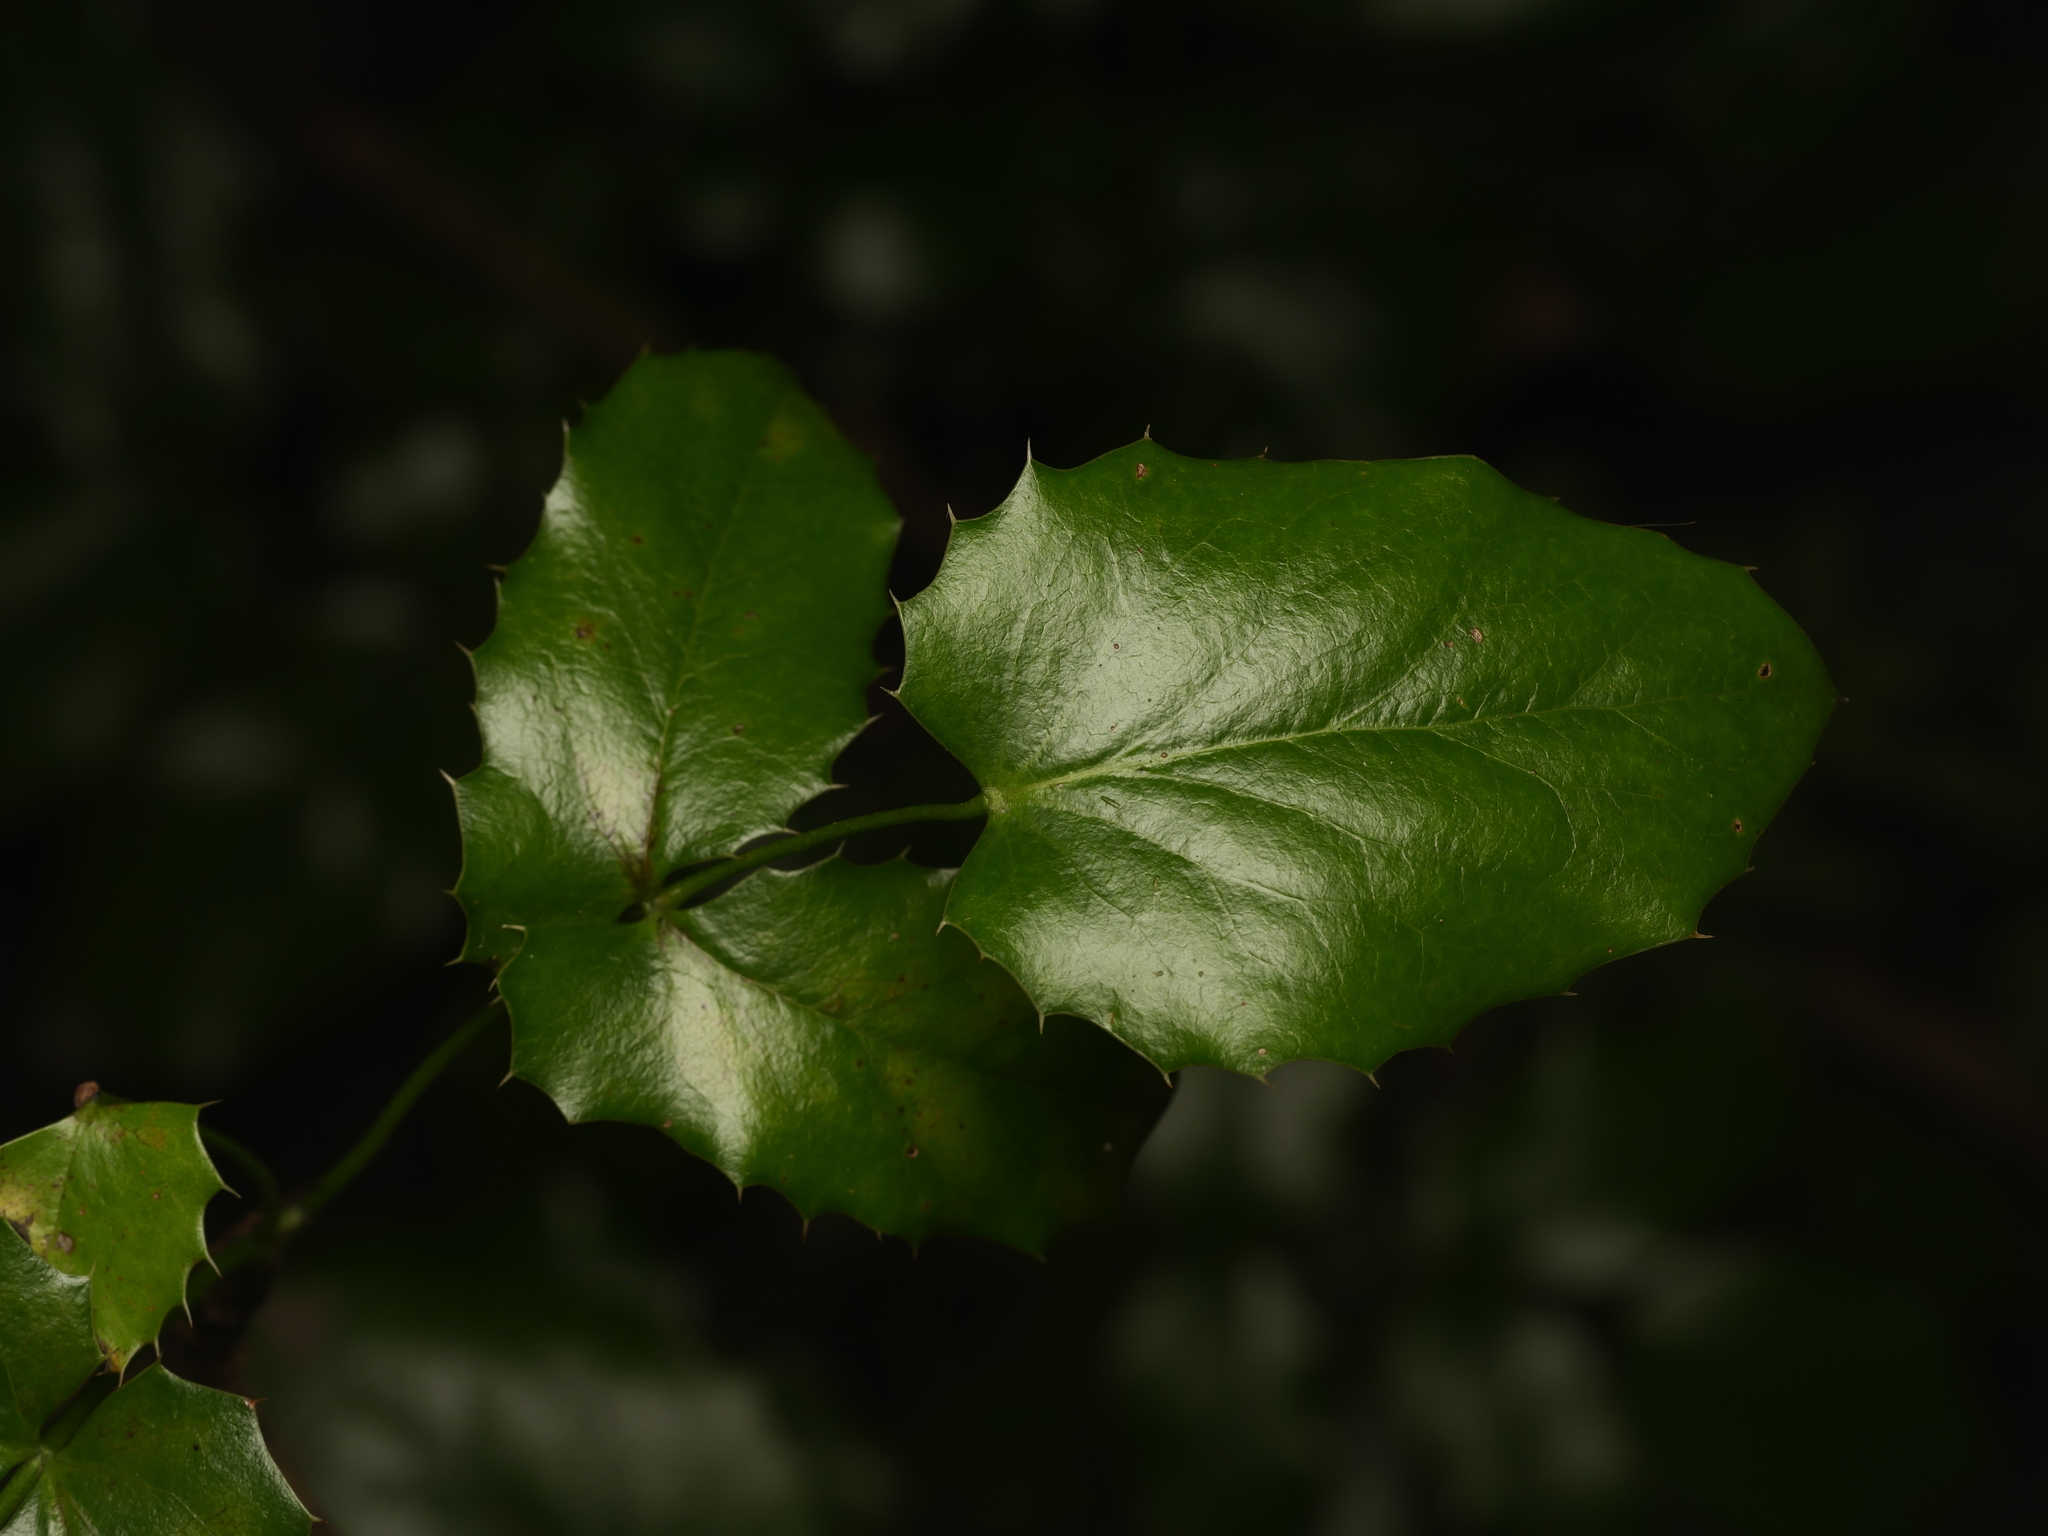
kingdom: Plantae
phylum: Tracheophyta
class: Magnoliopsida
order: Ranunculales
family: Berberidaceae
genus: Mahonia
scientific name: Mahonia aquifolium
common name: Oregon-grape
